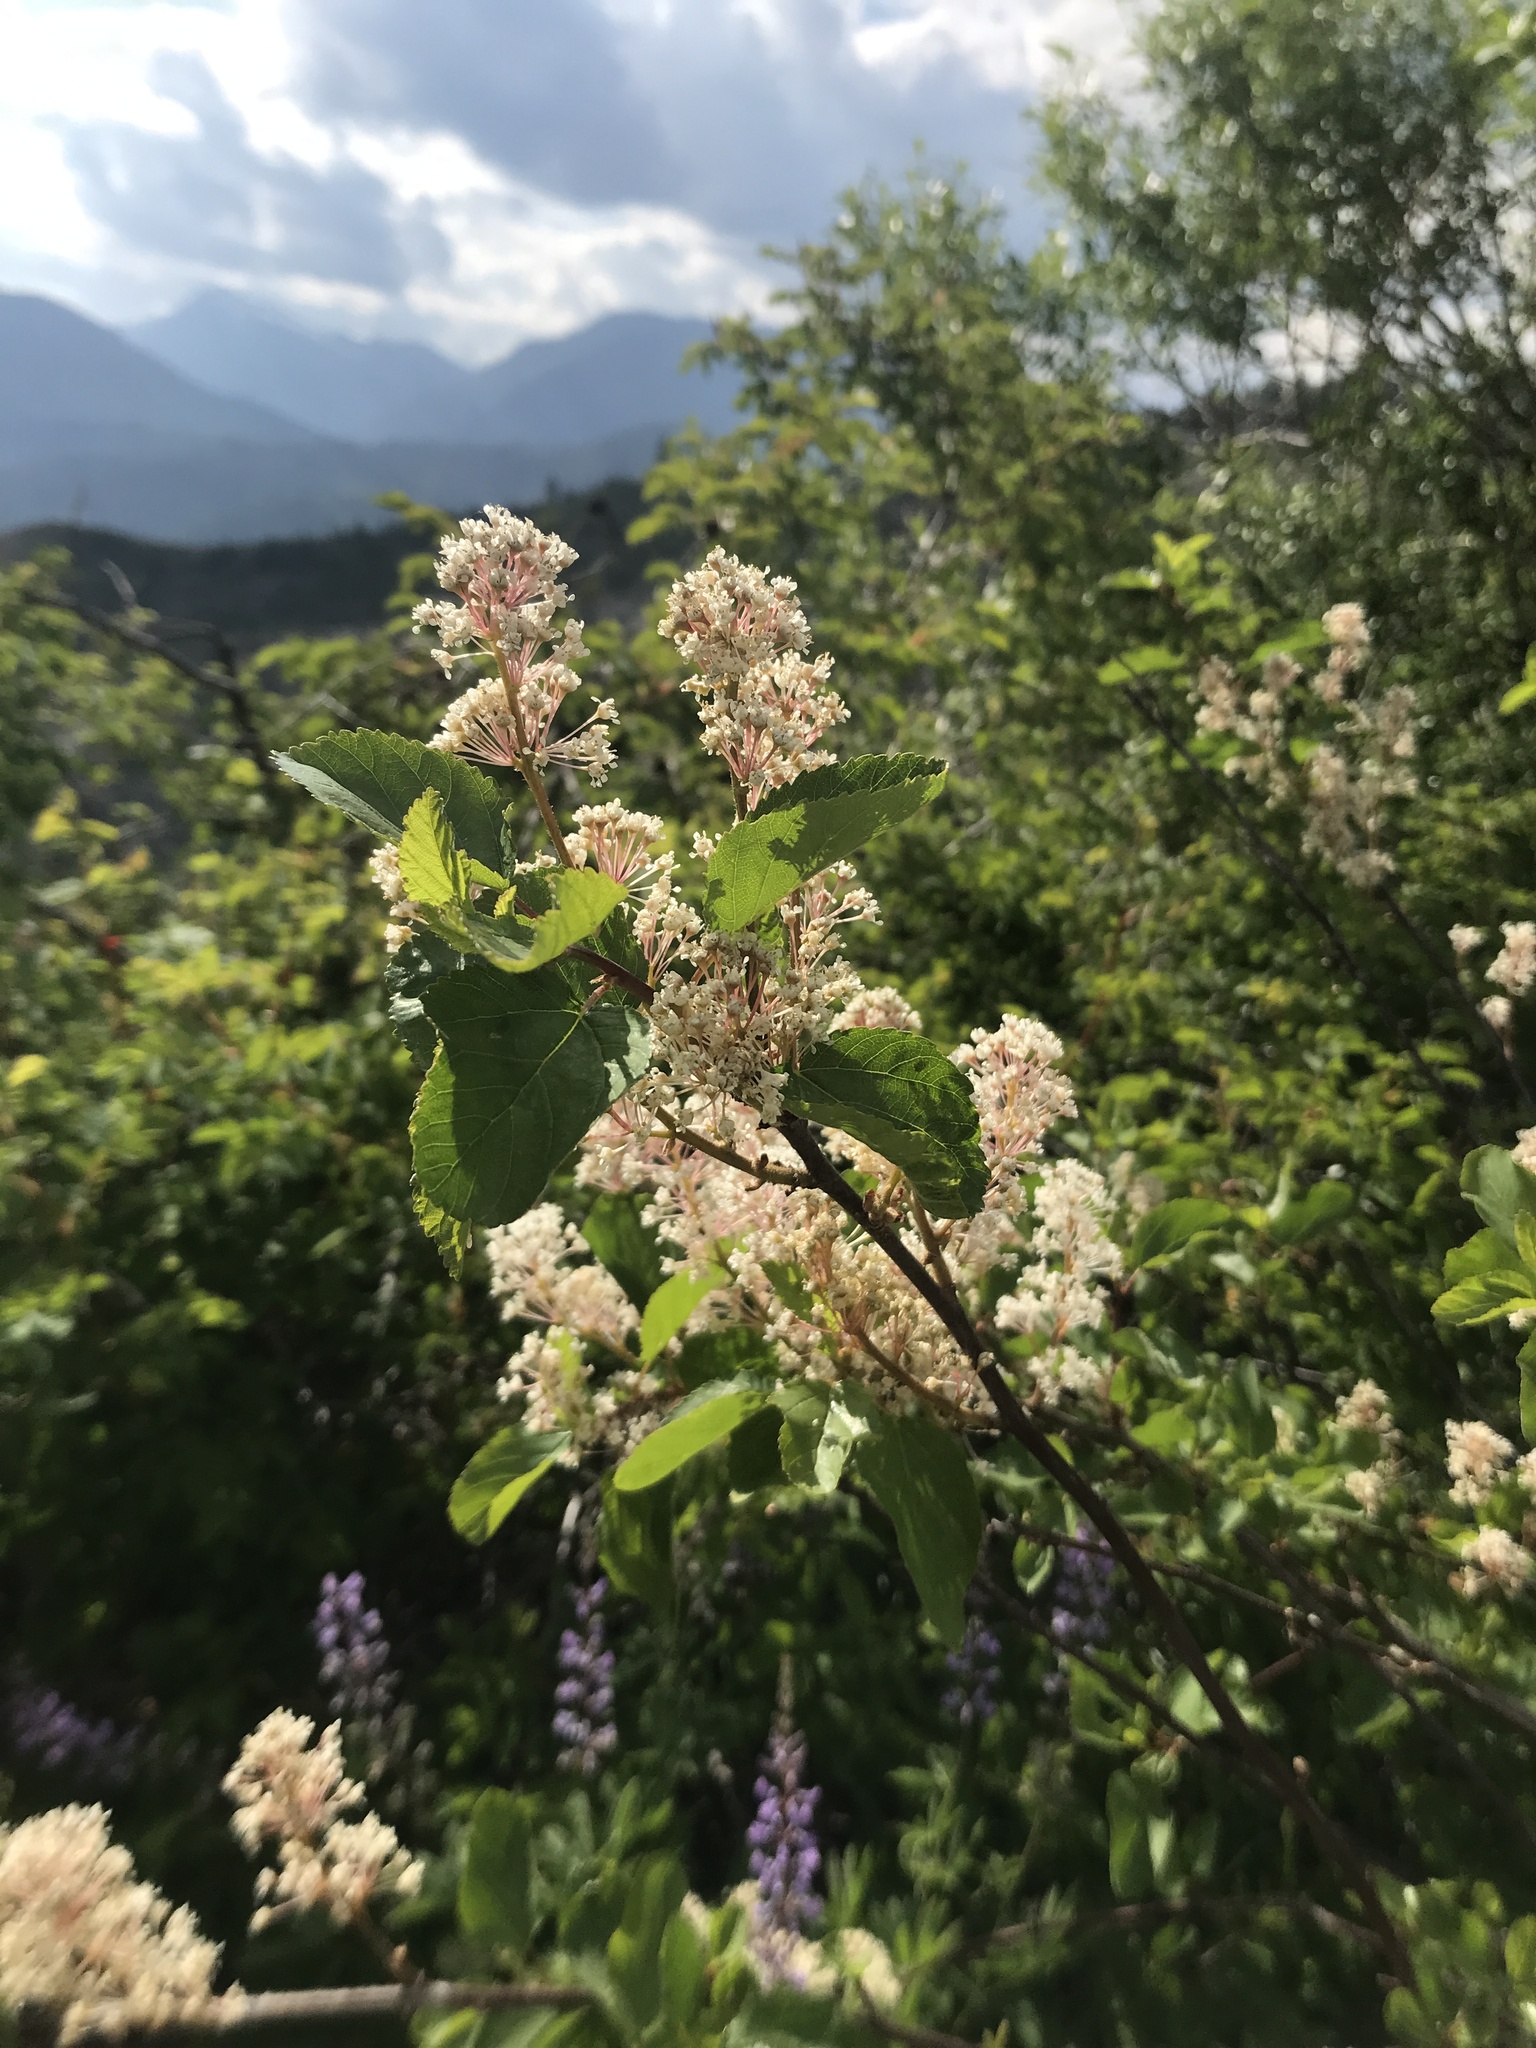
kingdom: Plantae
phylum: Tracheophyta
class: Magnoliopsida
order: Rosales
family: Rhamnaceae
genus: Ceanothus
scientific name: Ceanothus sanguineus
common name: Teatree
